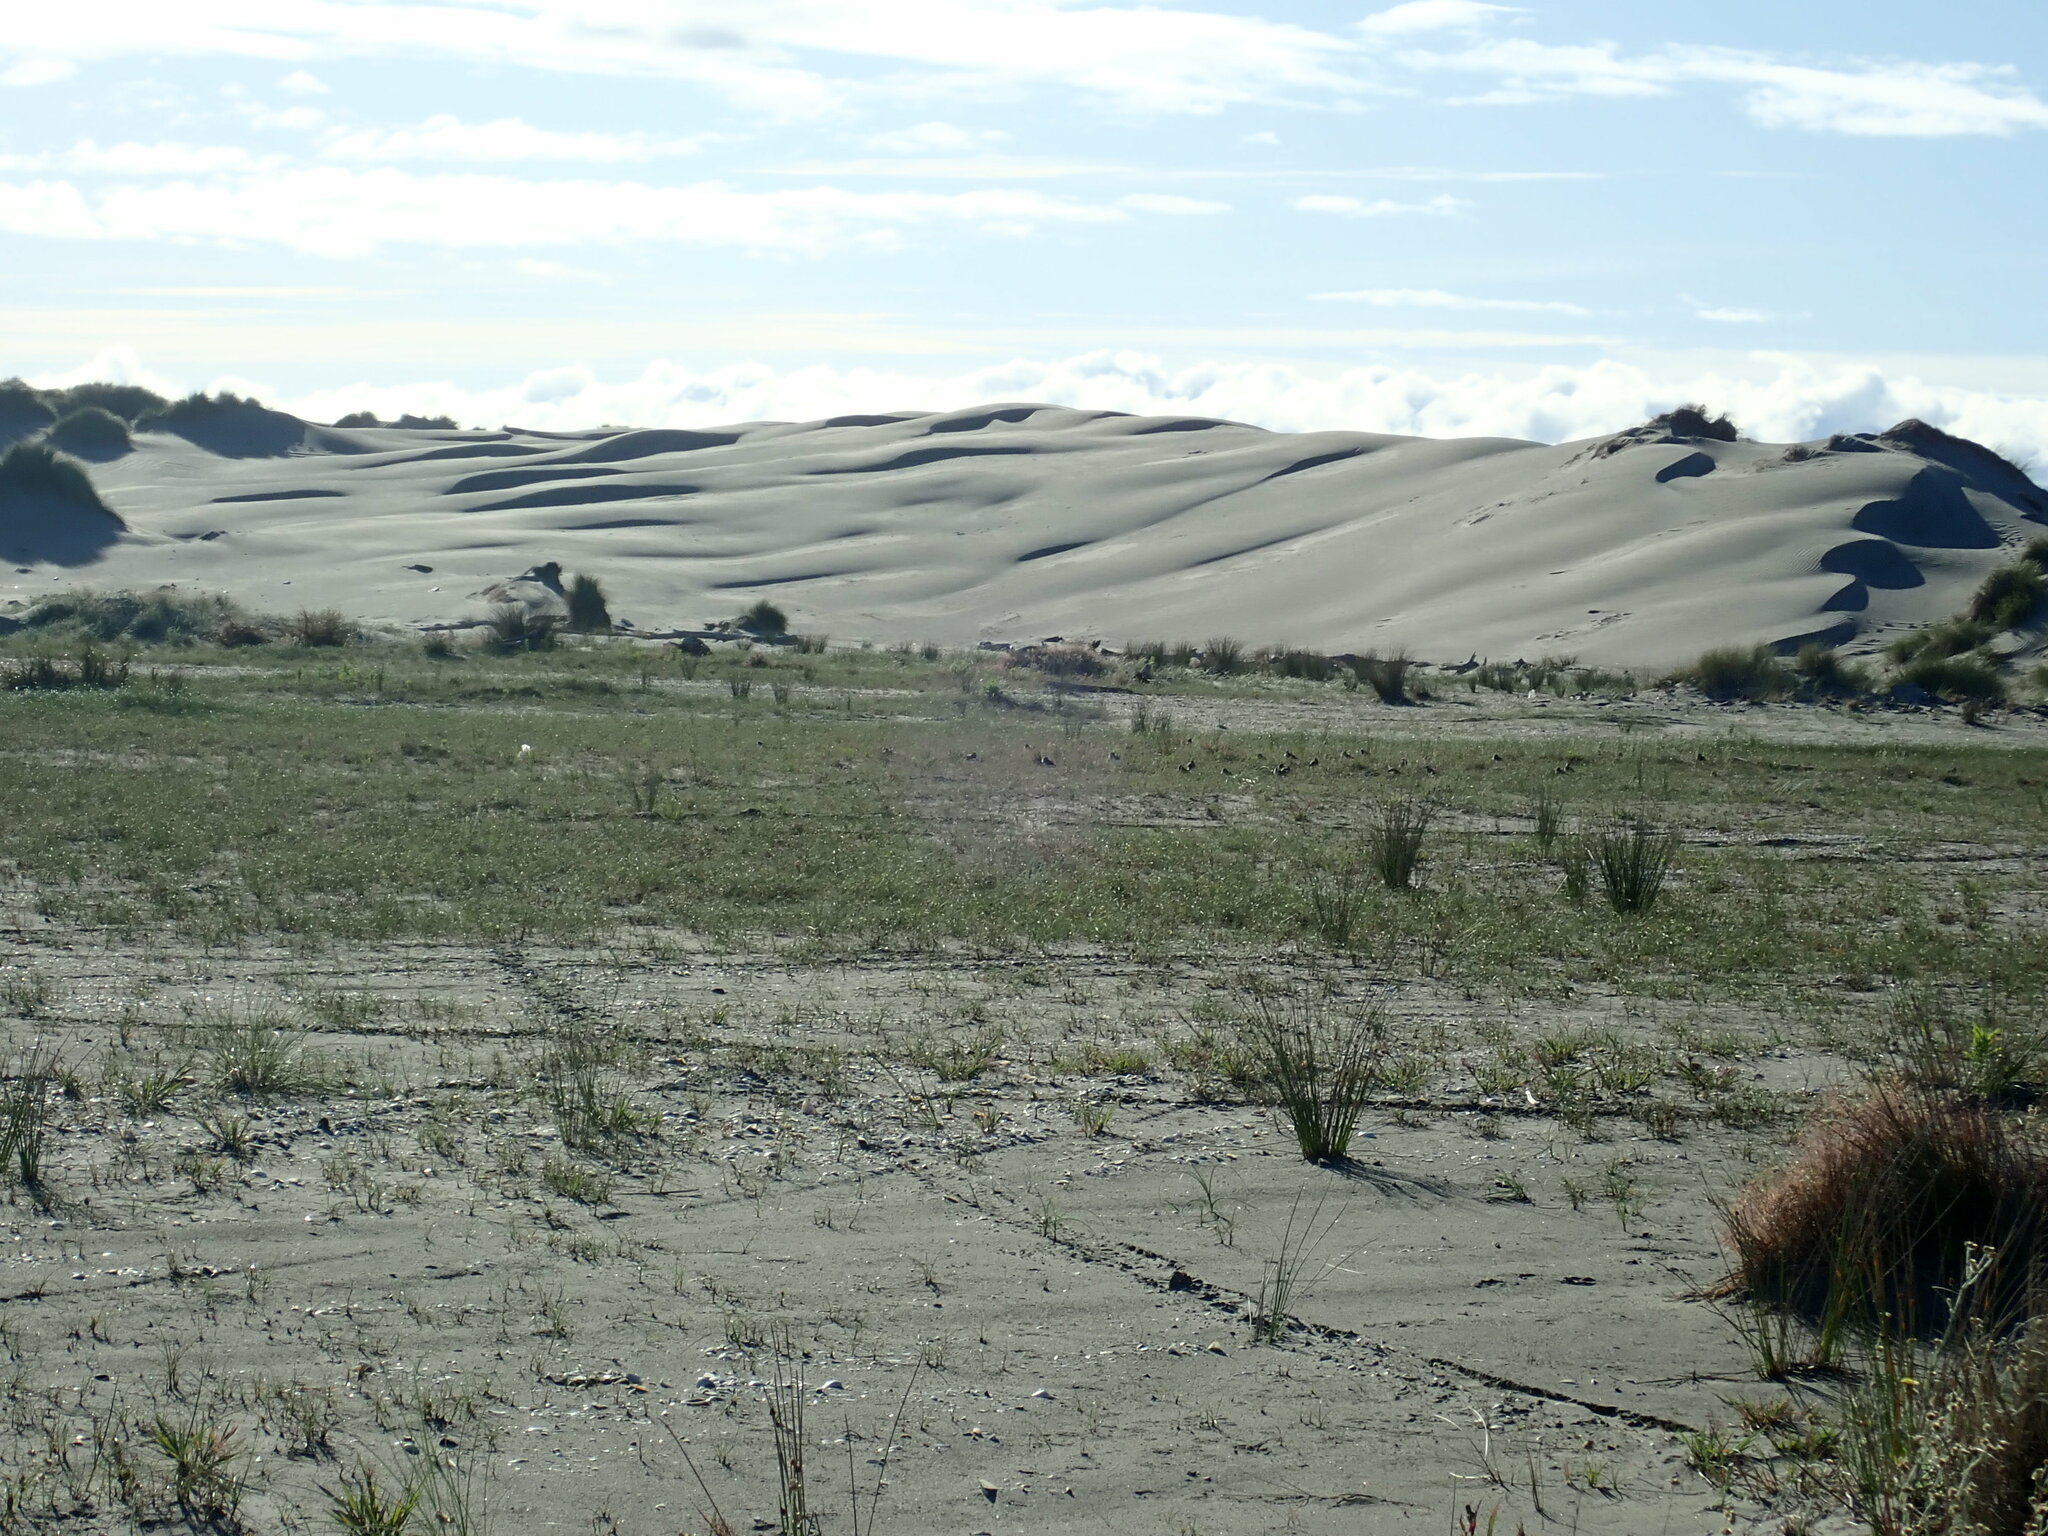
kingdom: Animalia
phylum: Chordata
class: Aves
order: Charadriiformes
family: Charadriidae
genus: Anarhynchus
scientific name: Anarhynchus
